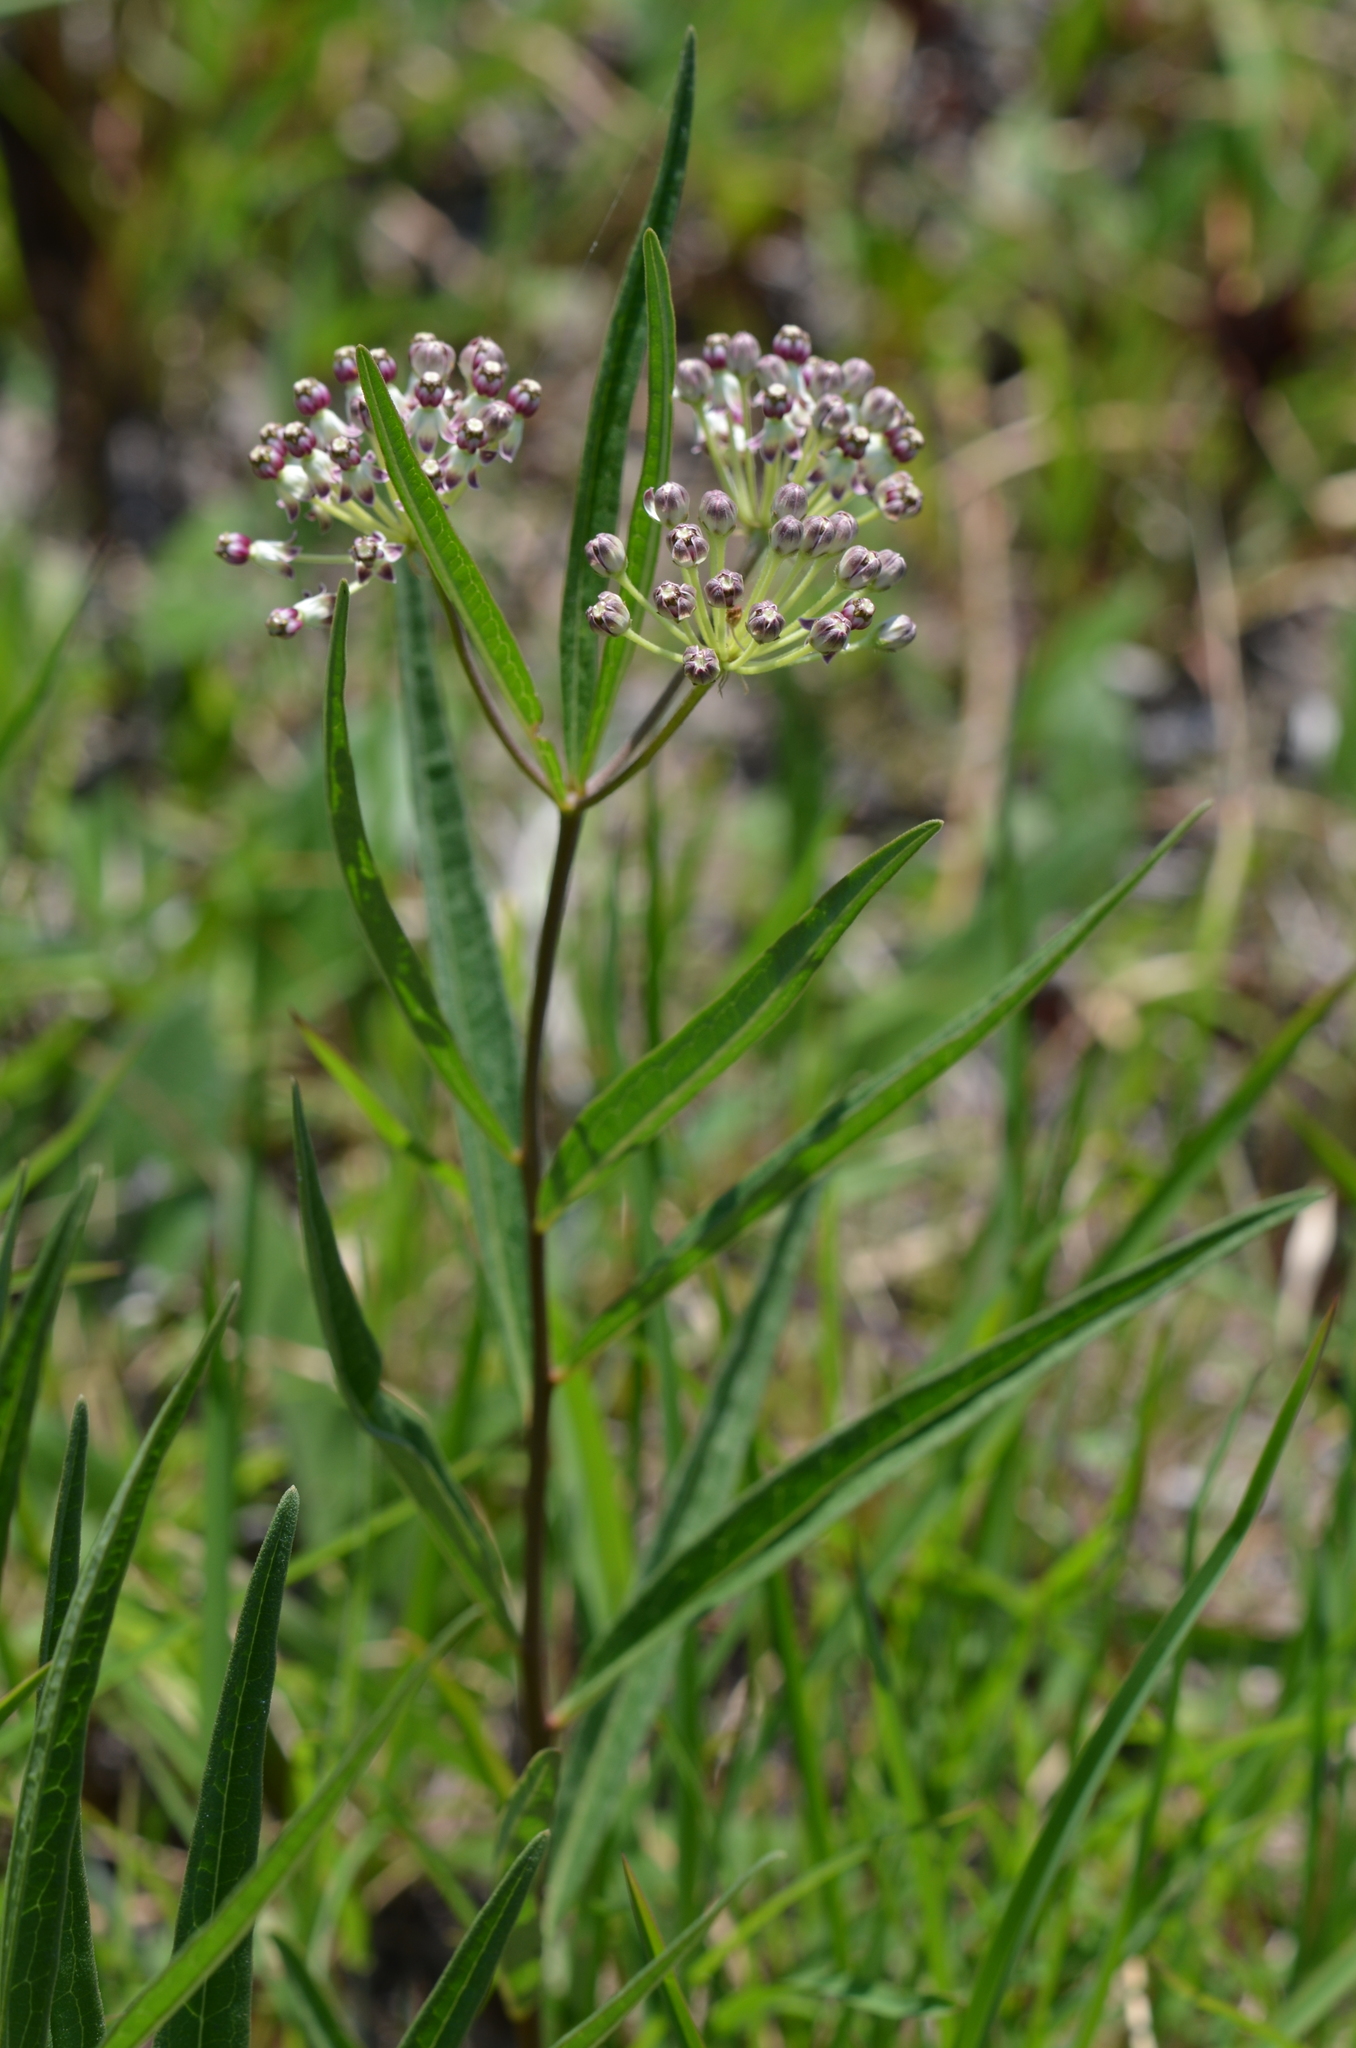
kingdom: Plantae
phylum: Tracheophyta
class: Magnoliopsida
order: Gentianales
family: Apocynaceae
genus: Asclepias
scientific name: Asclepias longifolia
